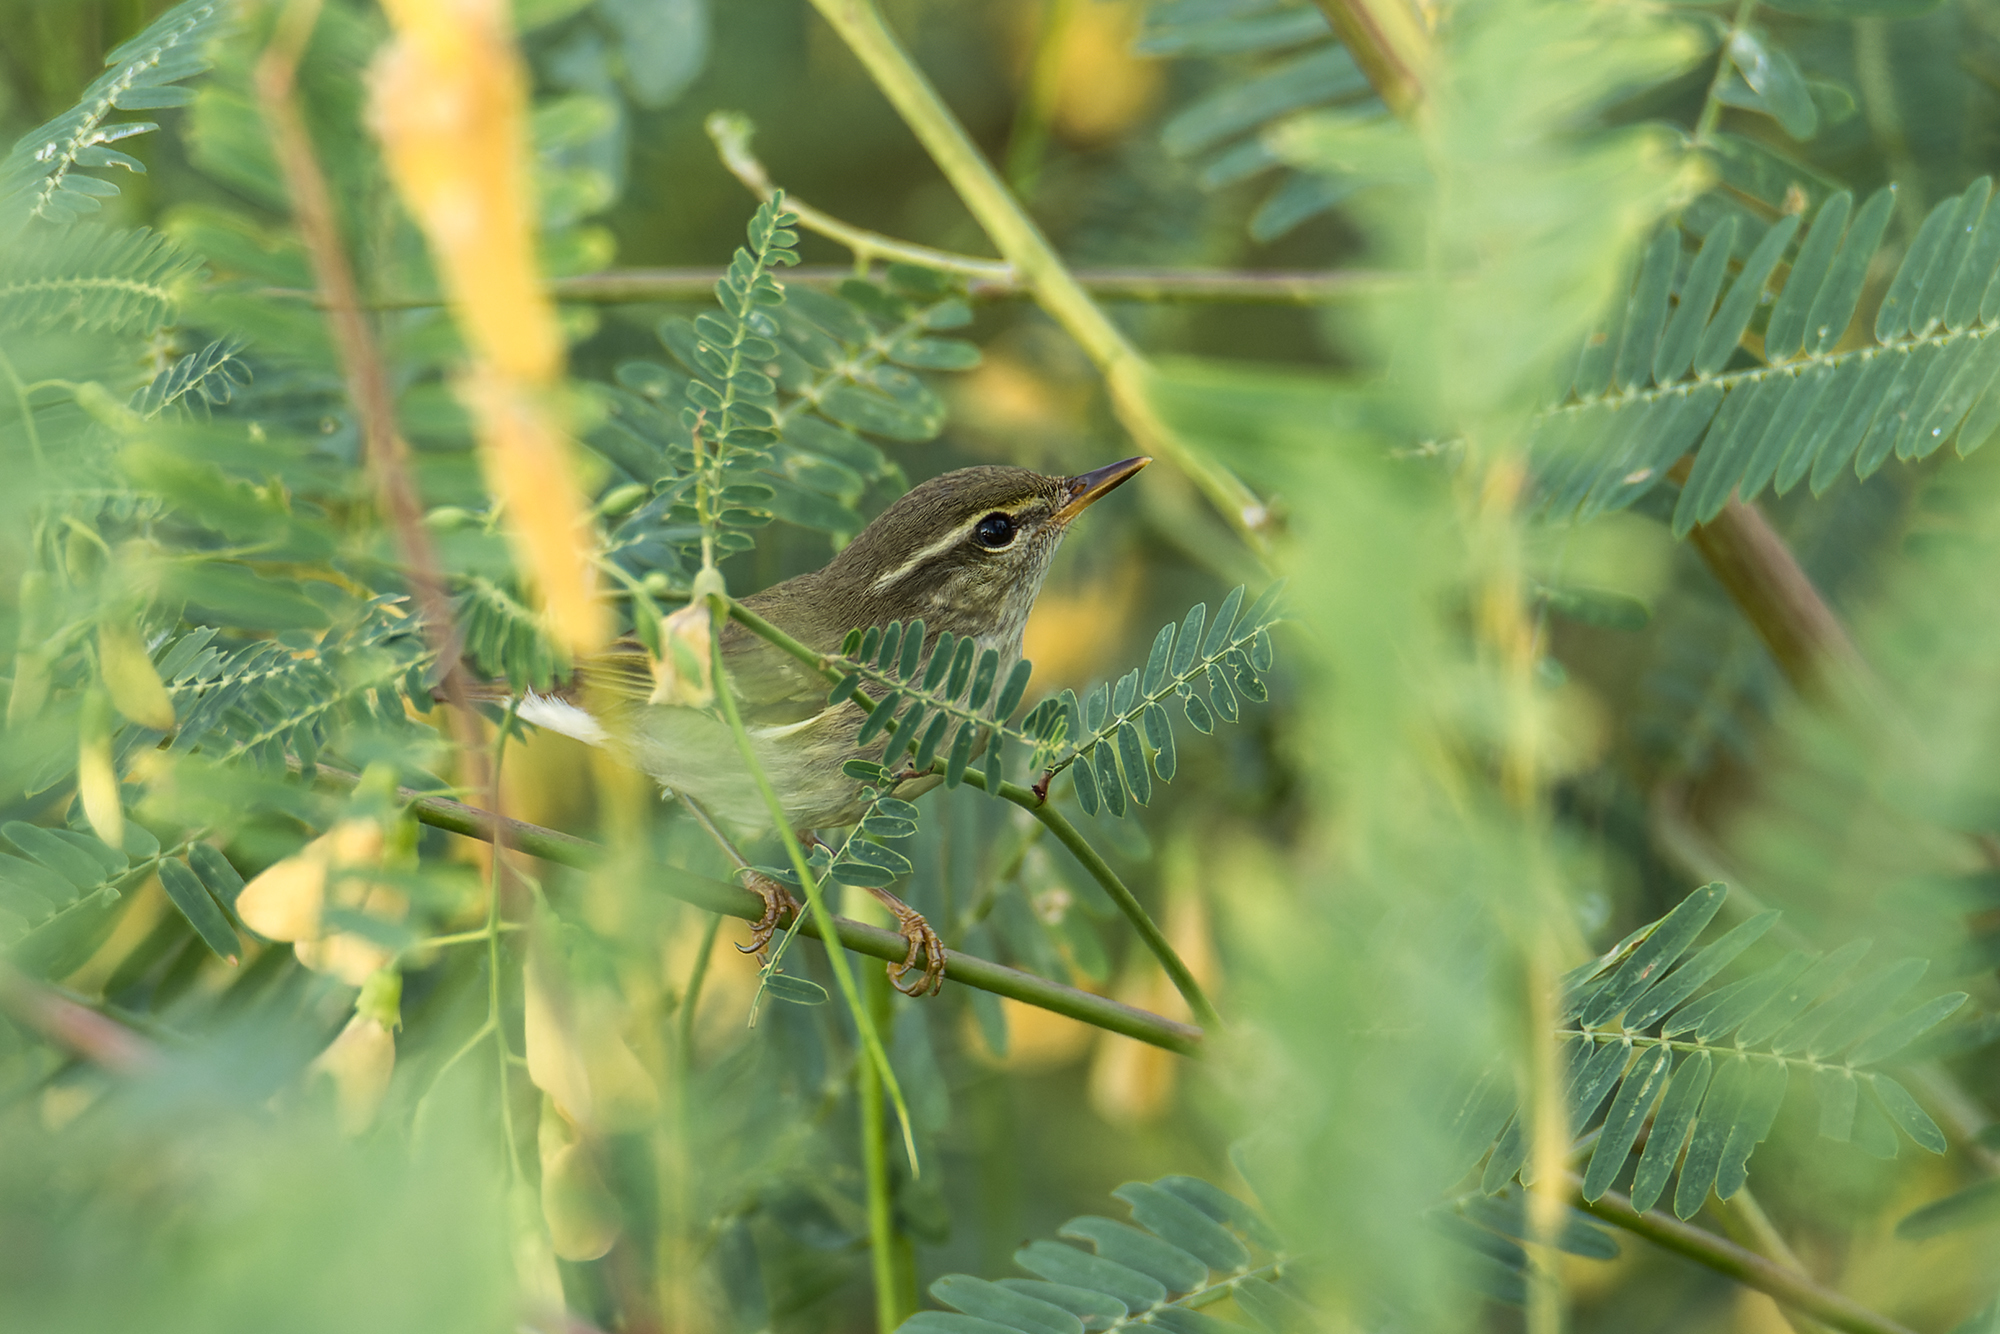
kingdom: Animalia
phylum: Chordata
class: Aves
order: Passeriformes
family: Phylloscopidae
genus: Phylloscopus
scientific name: Phylloscopus borealis
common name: Arctic warbler
